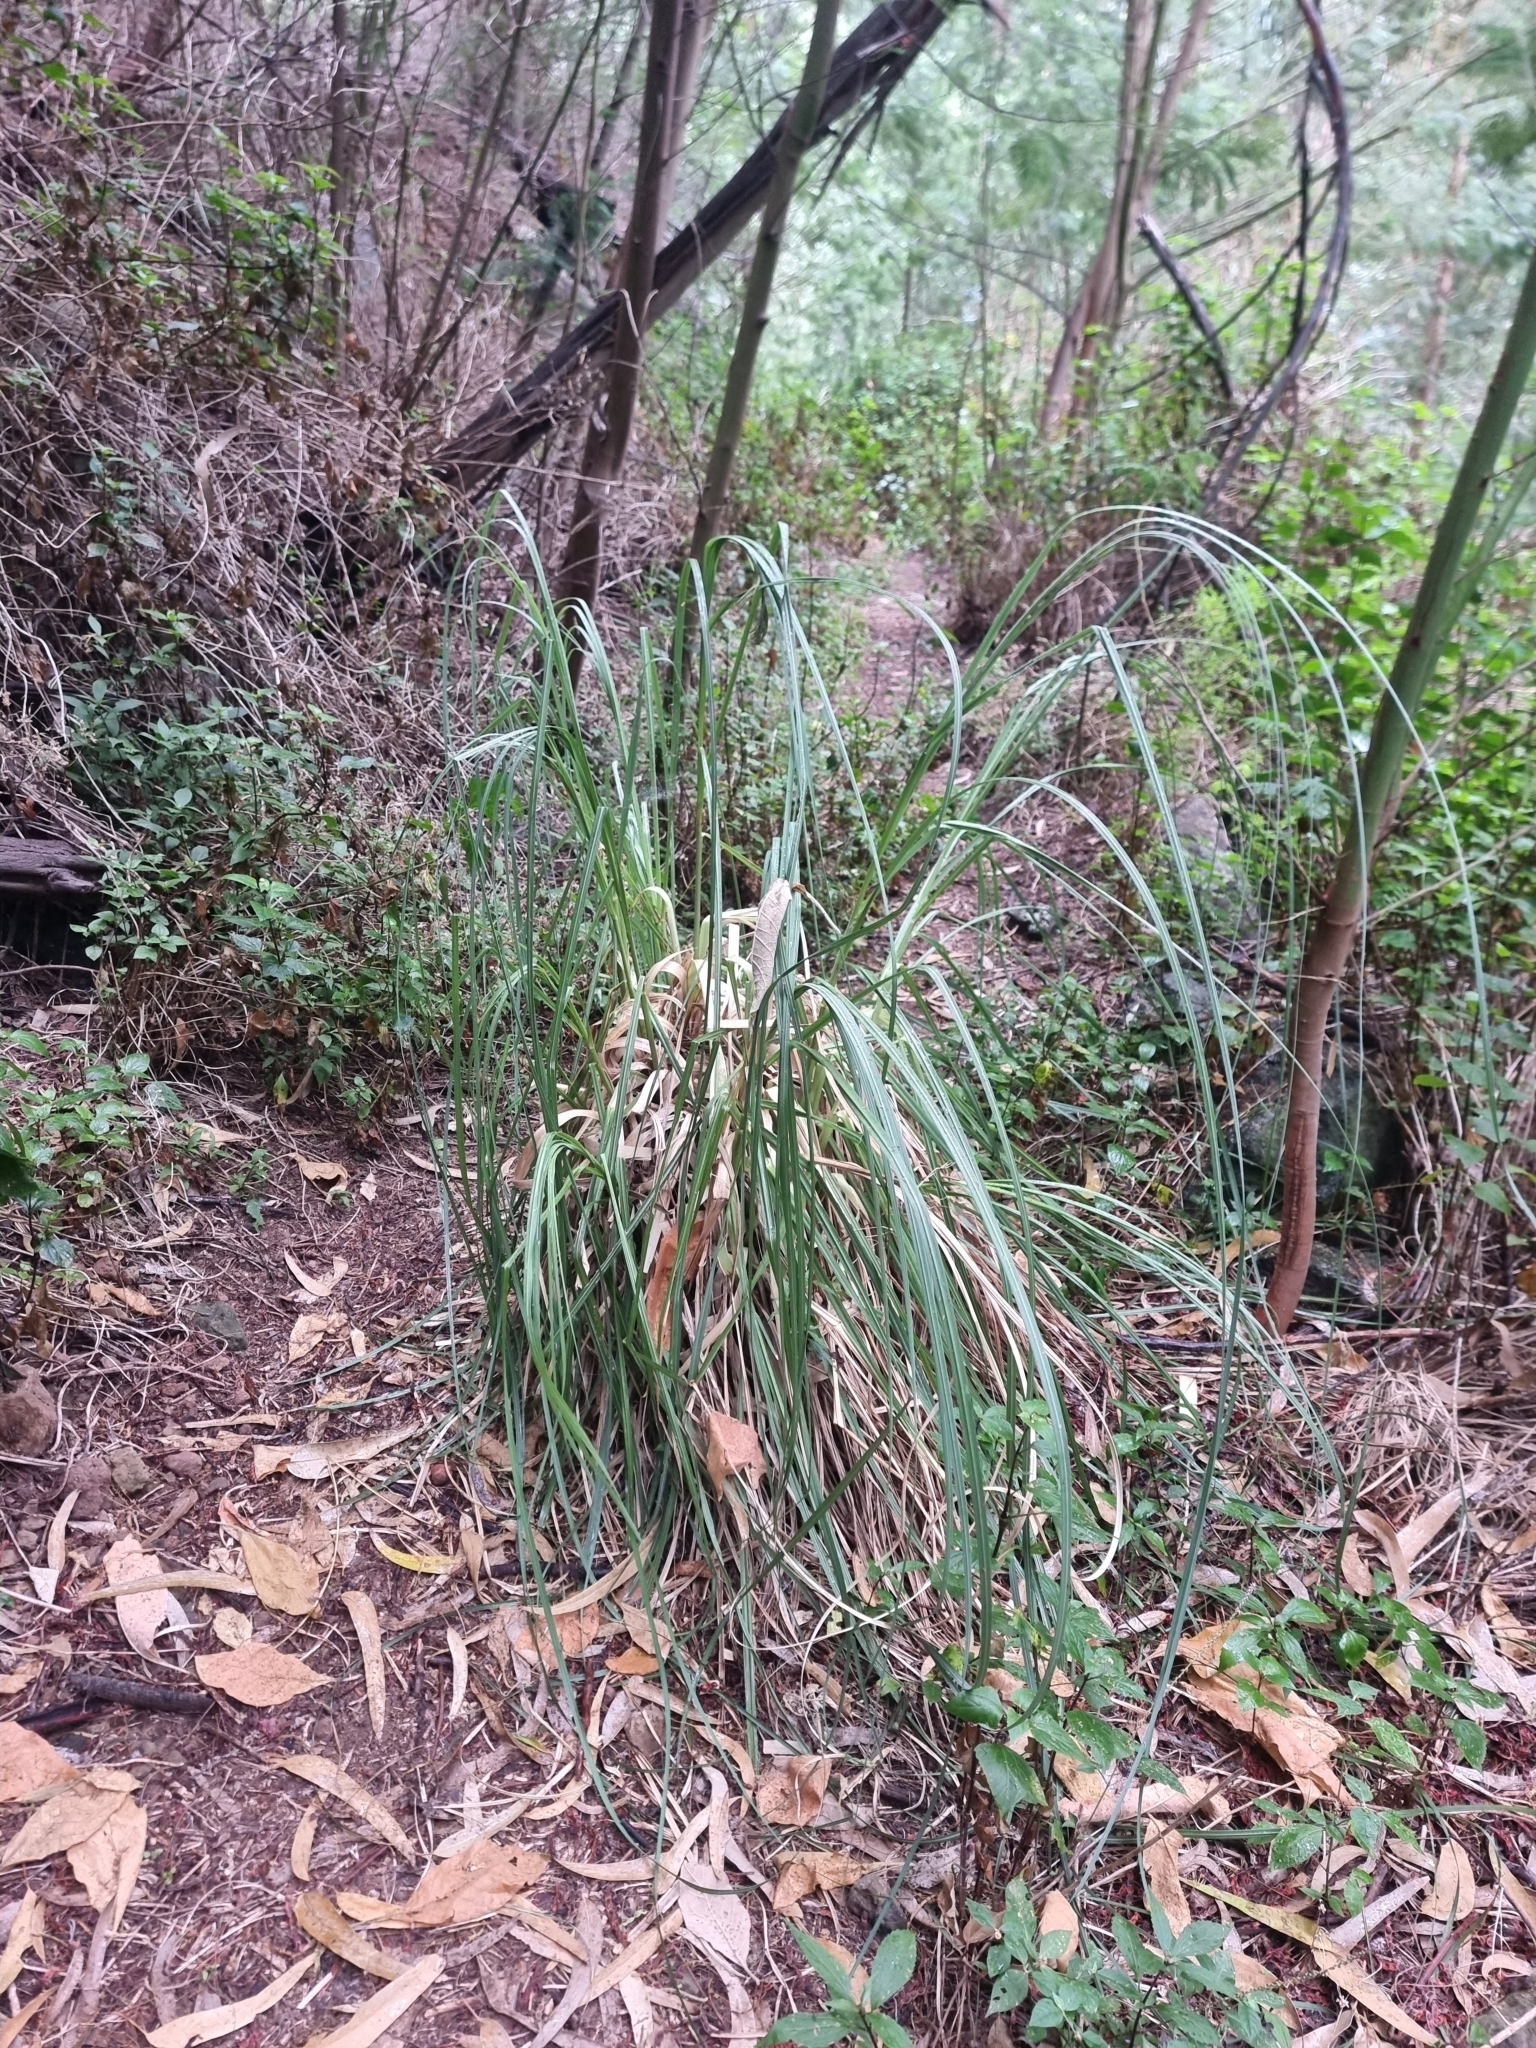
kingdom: Plantae
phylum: Tracheophyta
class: Liliopsida
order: Poales
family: Poaceae
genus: Cortaderia
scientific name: Cortaderia selloana
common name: Uruguayan pampas grass
